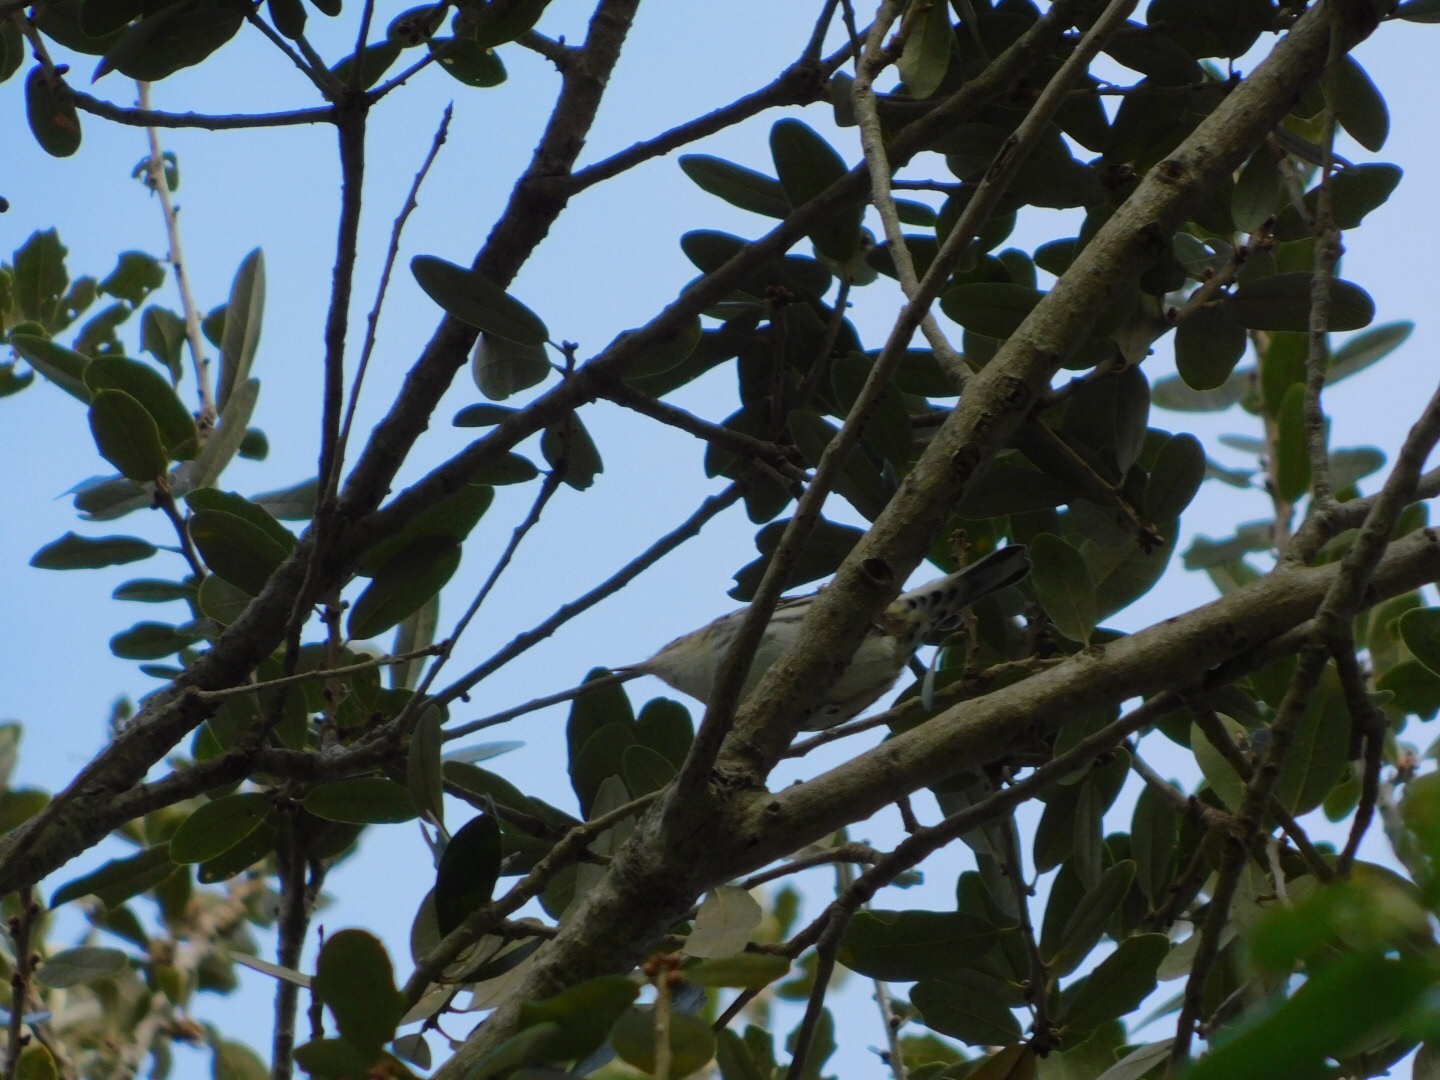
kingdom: Animalia
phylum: Chordata
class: Aves
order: Passeriformes
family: Parulidae
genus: Mniotilta
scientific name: Mniotilta varia
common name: Black-and-white warbler
